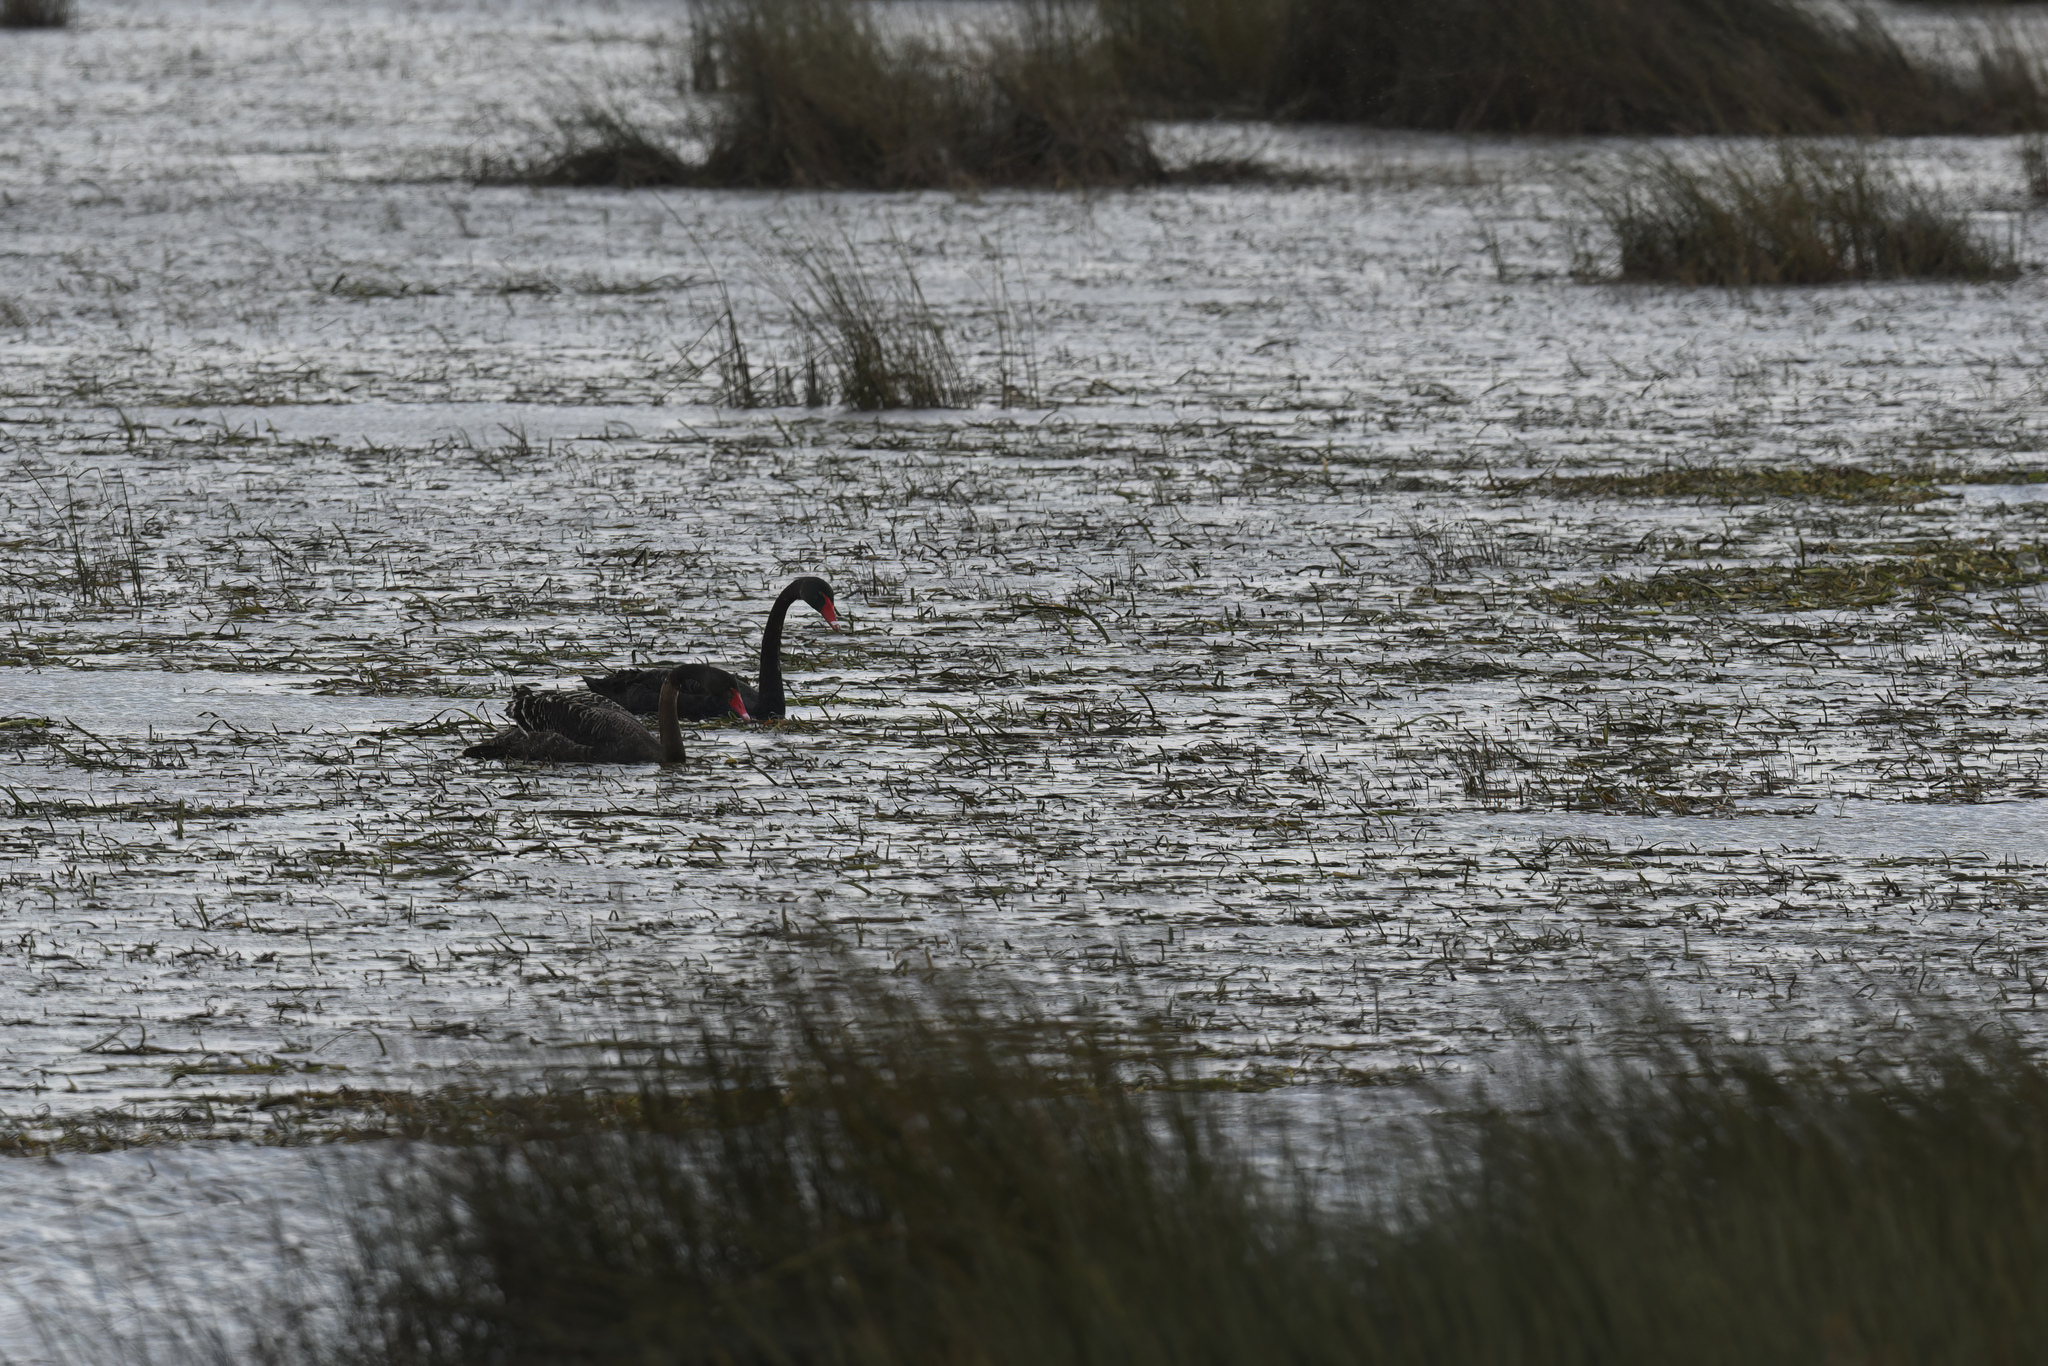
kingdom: Animalia
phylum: Chordata
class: Aves
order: Anseriformes
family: Anatidae
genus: Cygnus
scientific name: Cygnus atratus
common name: Black swan
